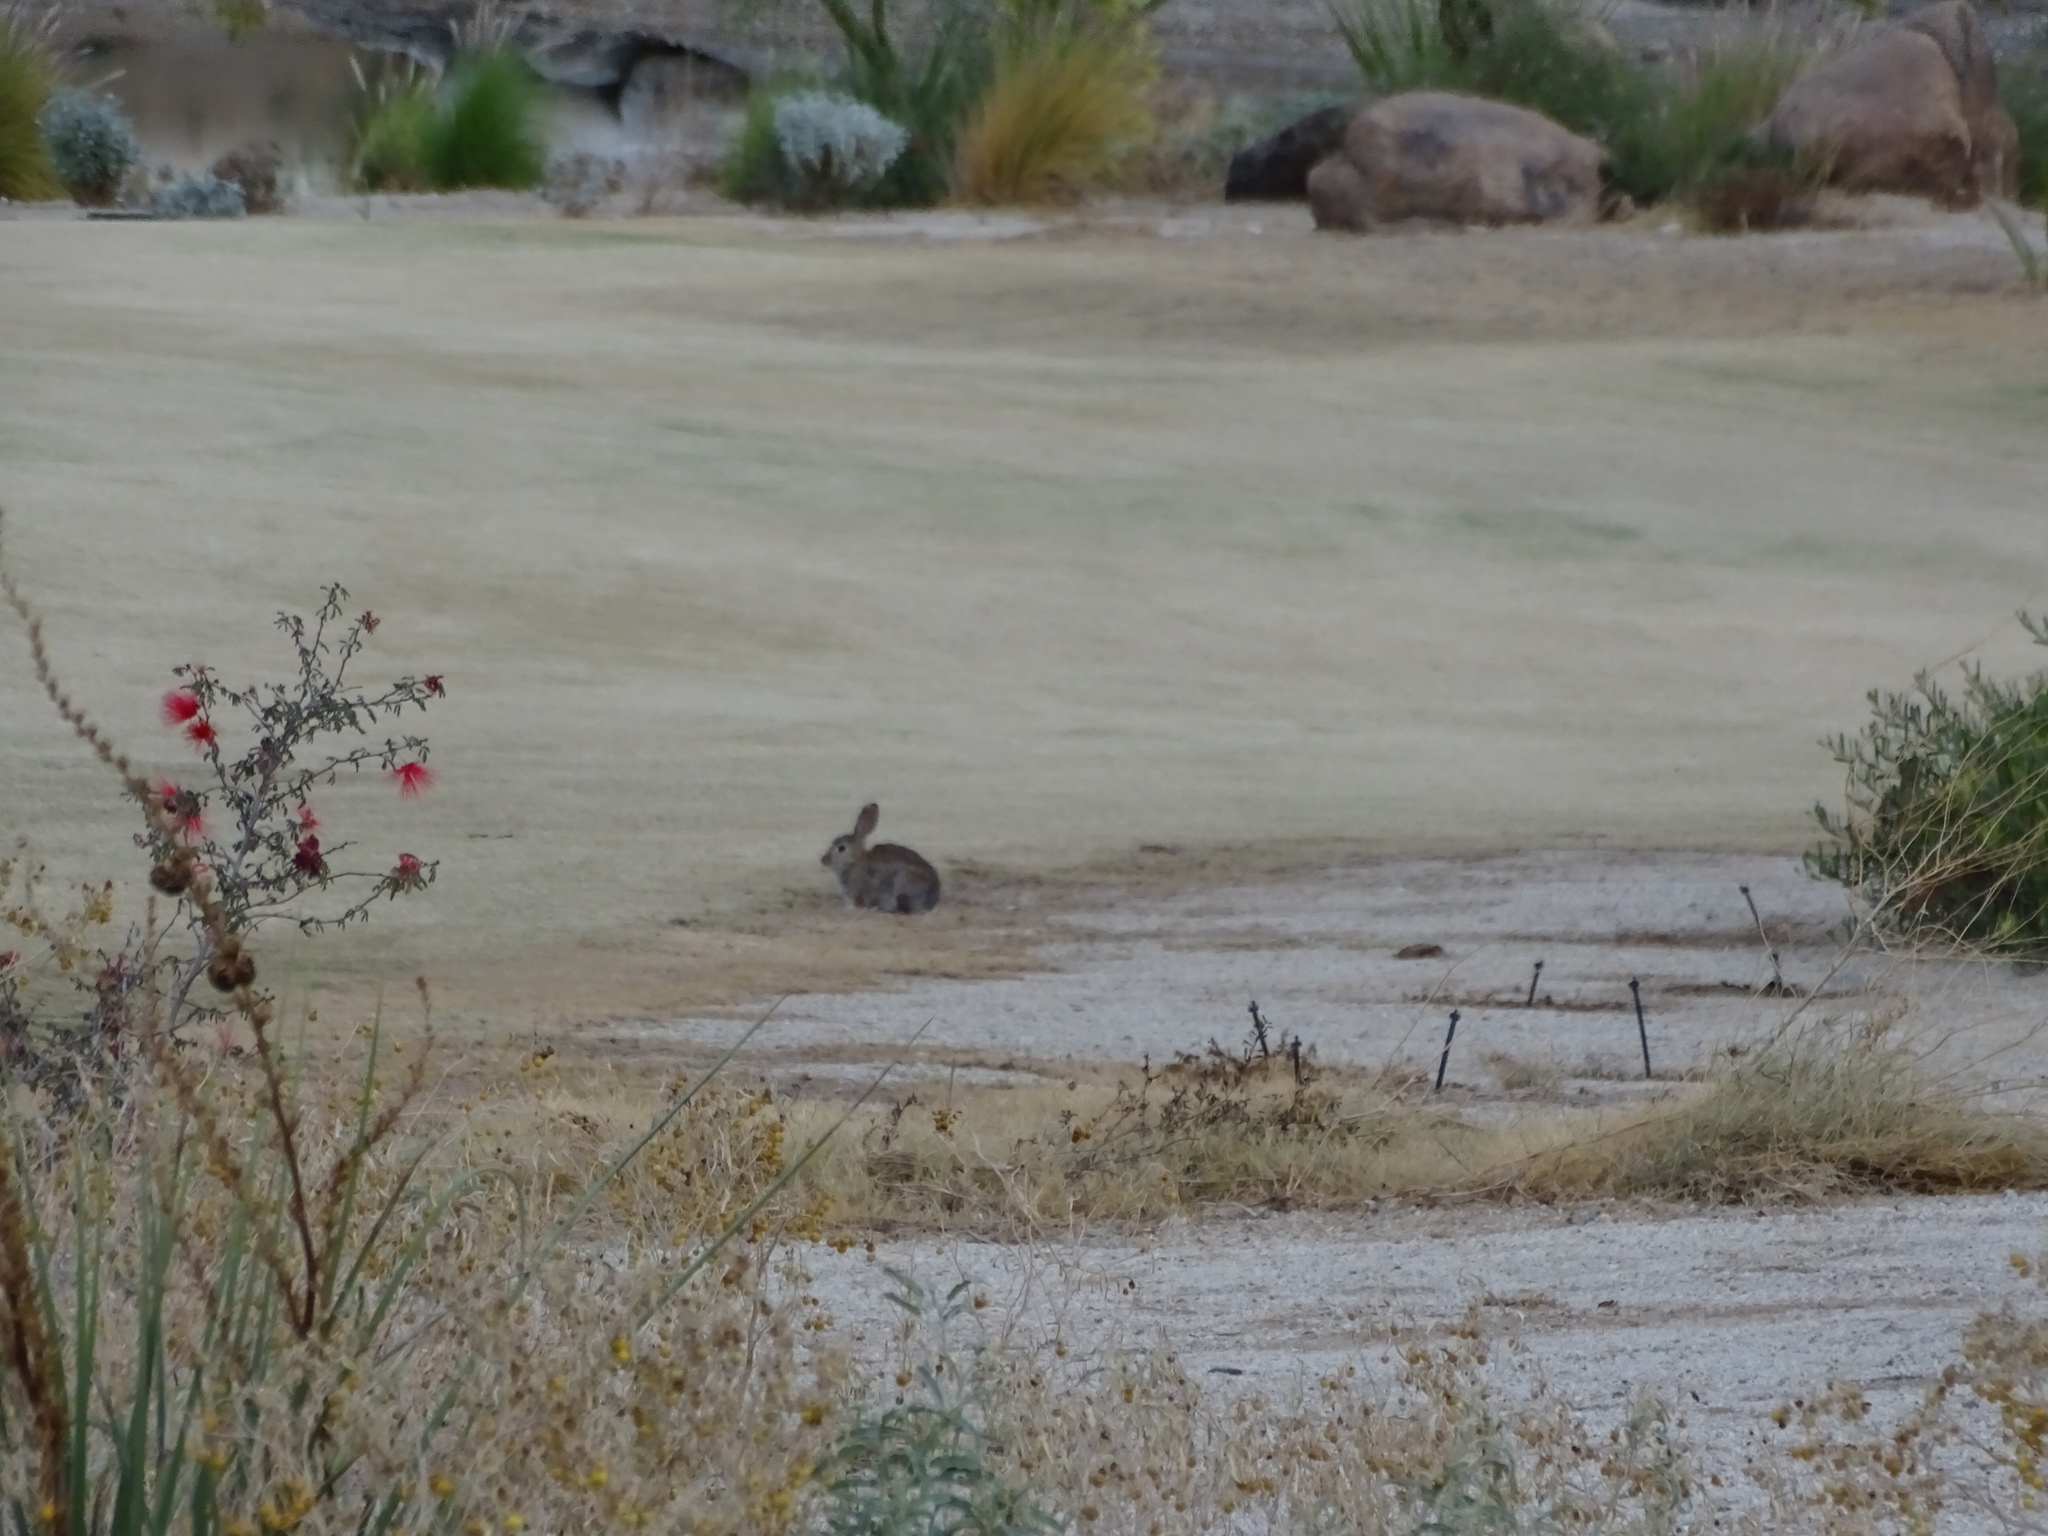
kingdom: Animalia
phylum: Chordata
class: Mammalia
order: Lagomorpha
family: Leporidae
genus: Sylvilagus
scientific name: Sylvilagus audubonii
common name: Desert cottontail
